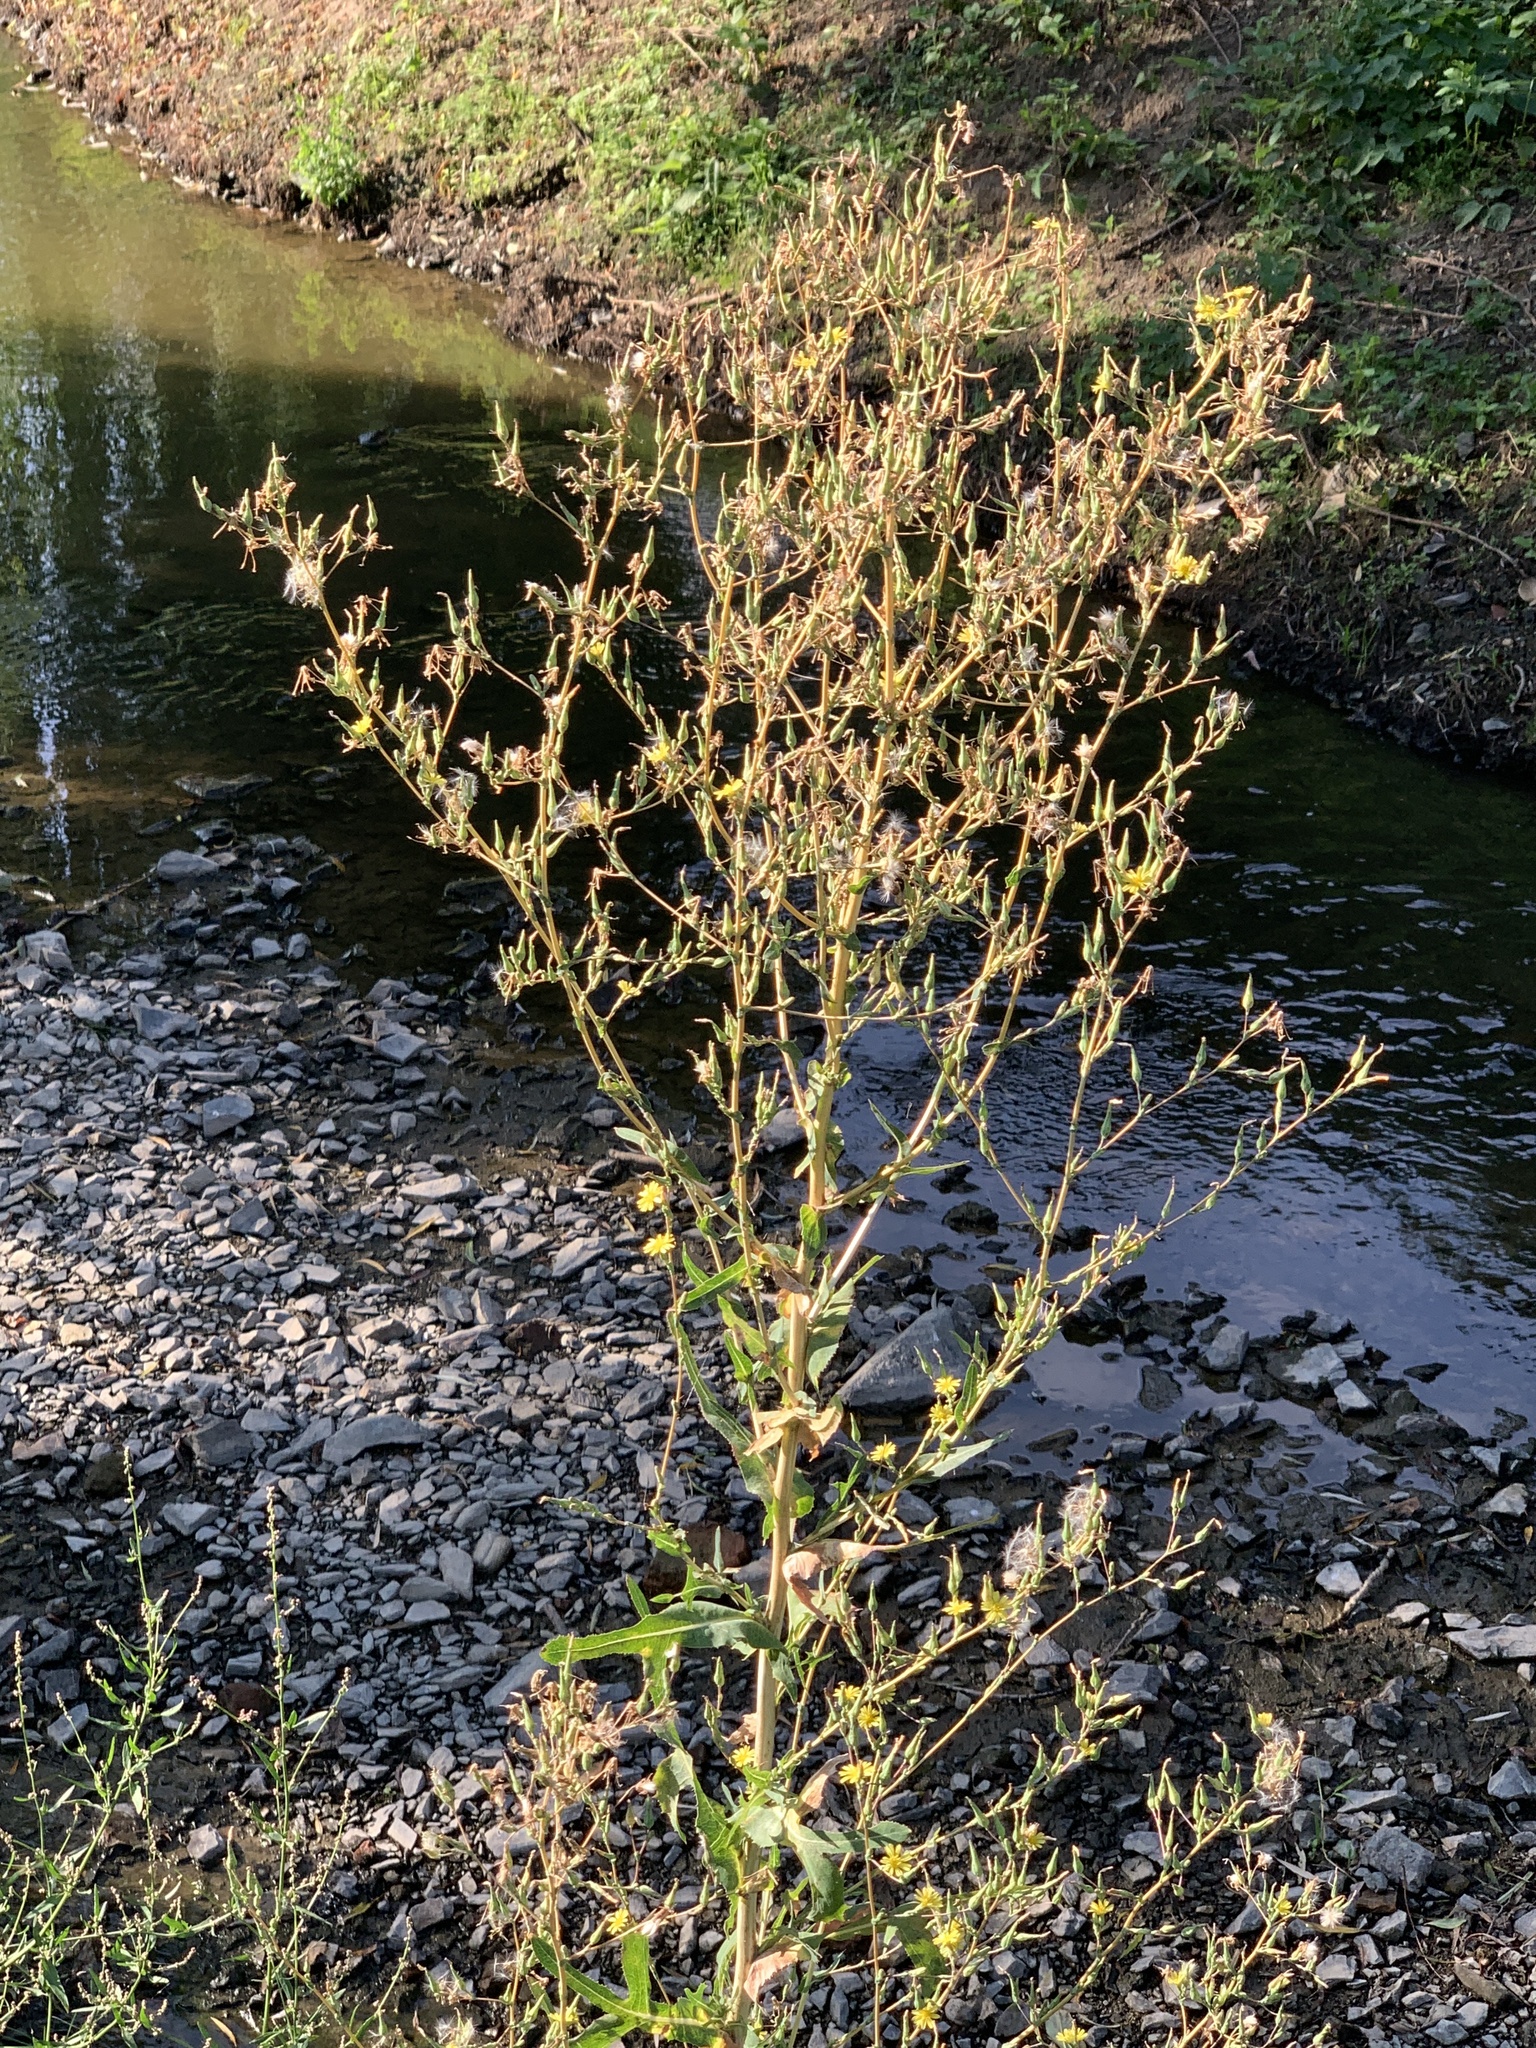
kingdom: Plantae
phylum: Tracheophyta
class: Magnoliopsida
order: Asterales
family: Asteraceae
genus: Lactuca
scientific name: Lactuca serriola
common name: Prickly lettuce
